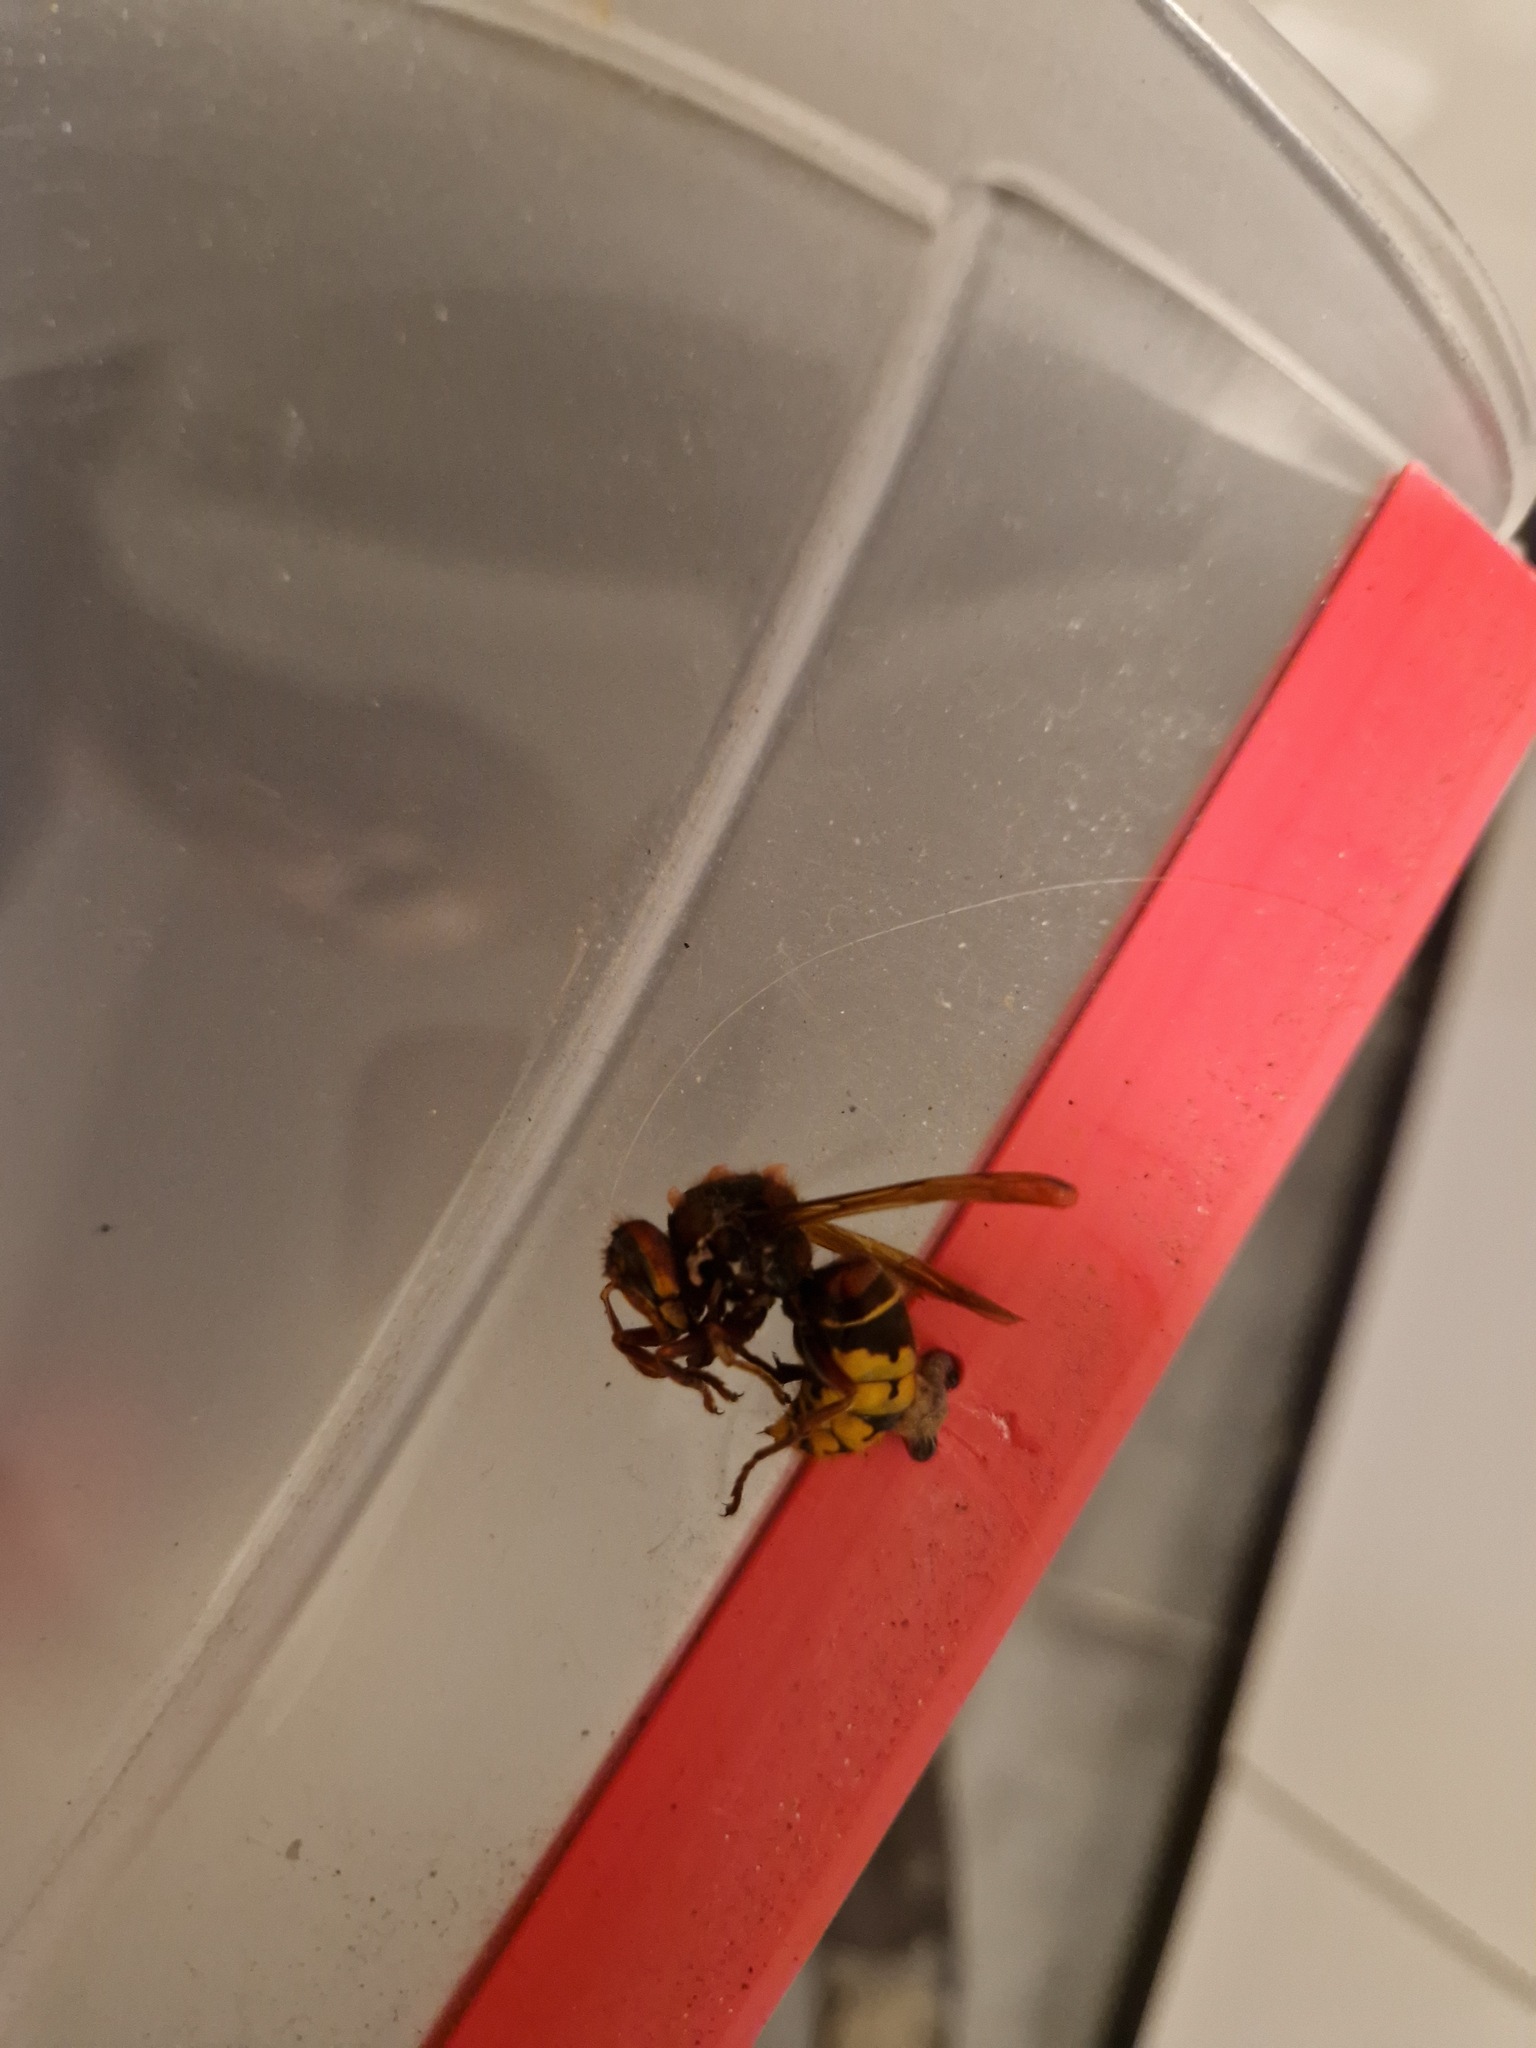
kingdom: Animalia
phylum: Arthropoda
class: Insecta
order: Hymenoptera
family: Vespidae
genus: Vespa
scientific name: Vespa crabro
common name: Hornet
